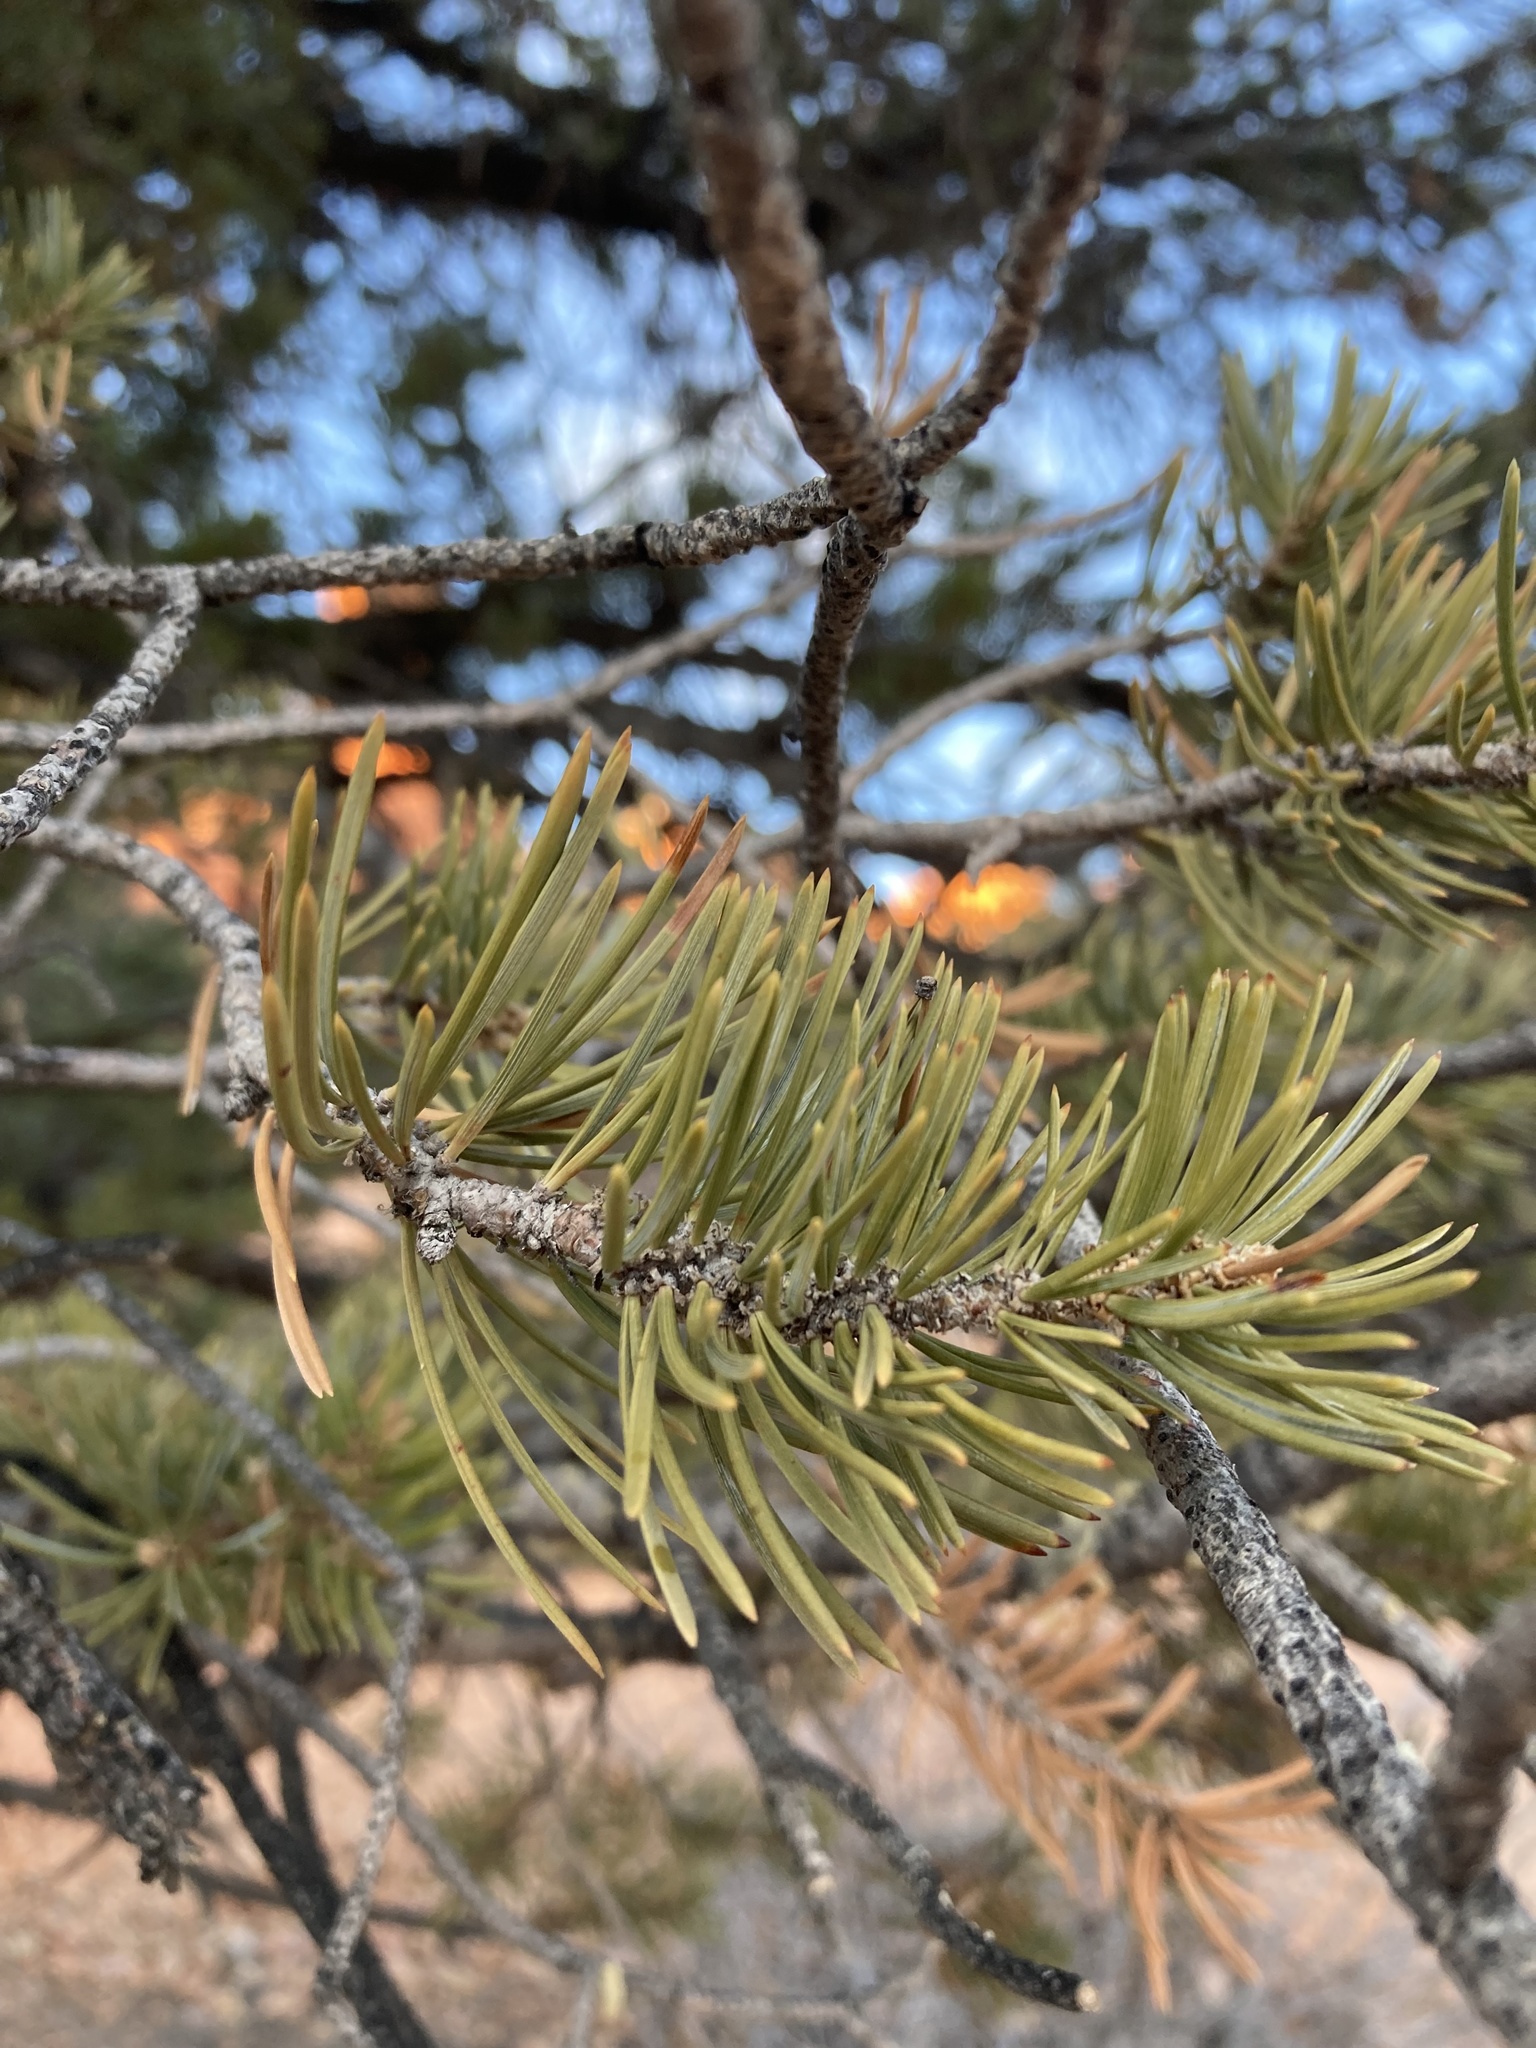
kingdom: Plantae
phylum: Tracheophyta
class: Pinopsida
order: Pinales
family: Pinaceae
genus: Pinus
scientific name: Pinus edulis
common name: Colorado pinyon
